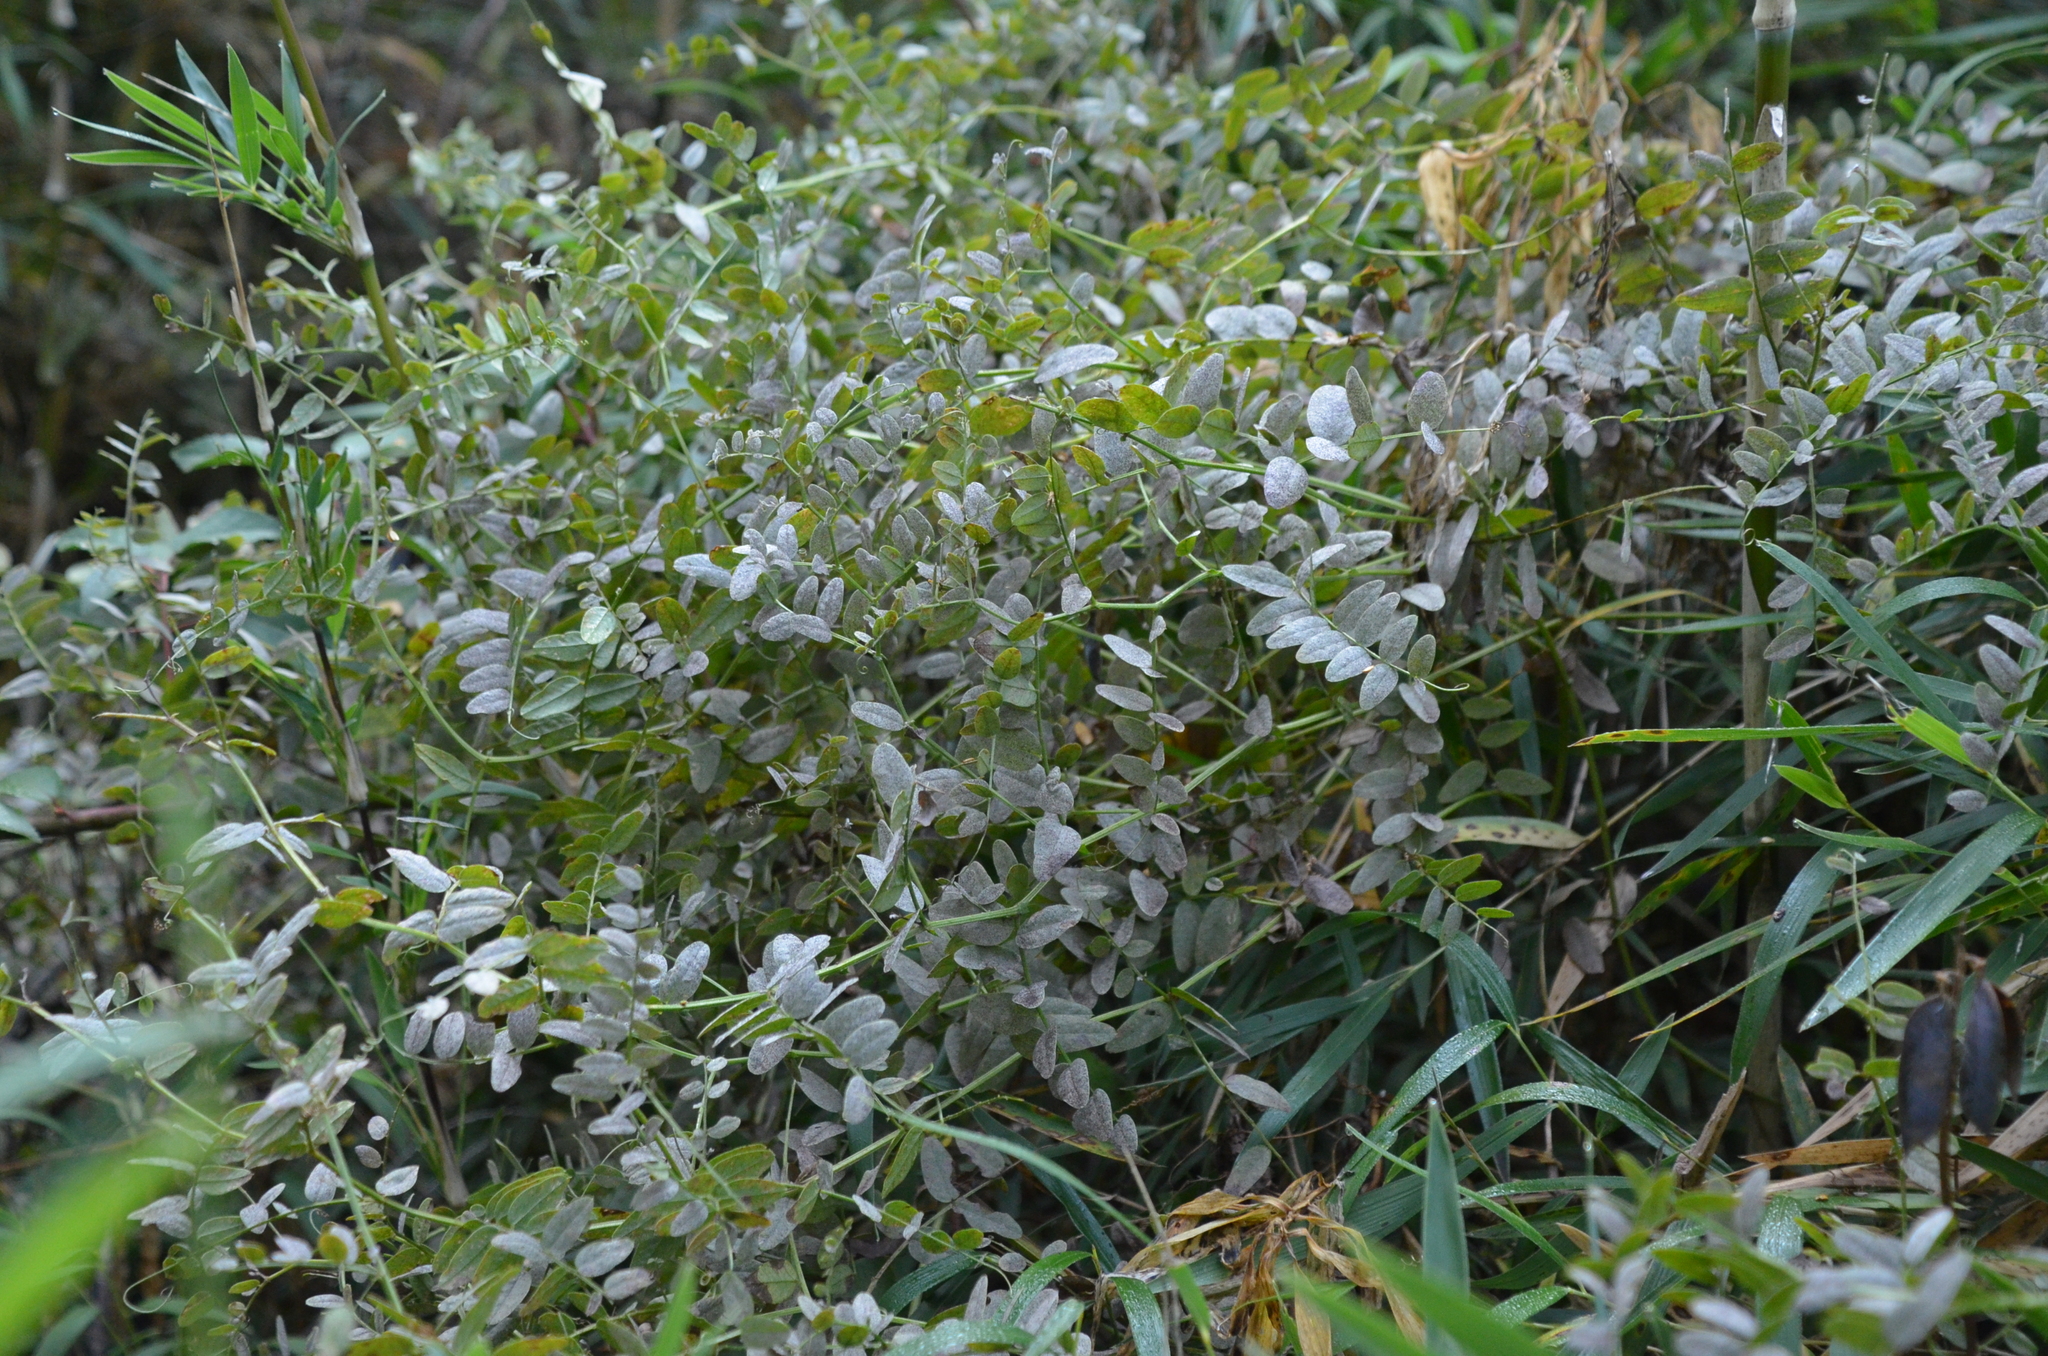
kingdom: Fungi
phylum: Ascomycota
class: Leotiomycetes
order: Helotiales
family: Erysiphaceae
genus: Erysiphe
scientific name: Erysiphe pisi
